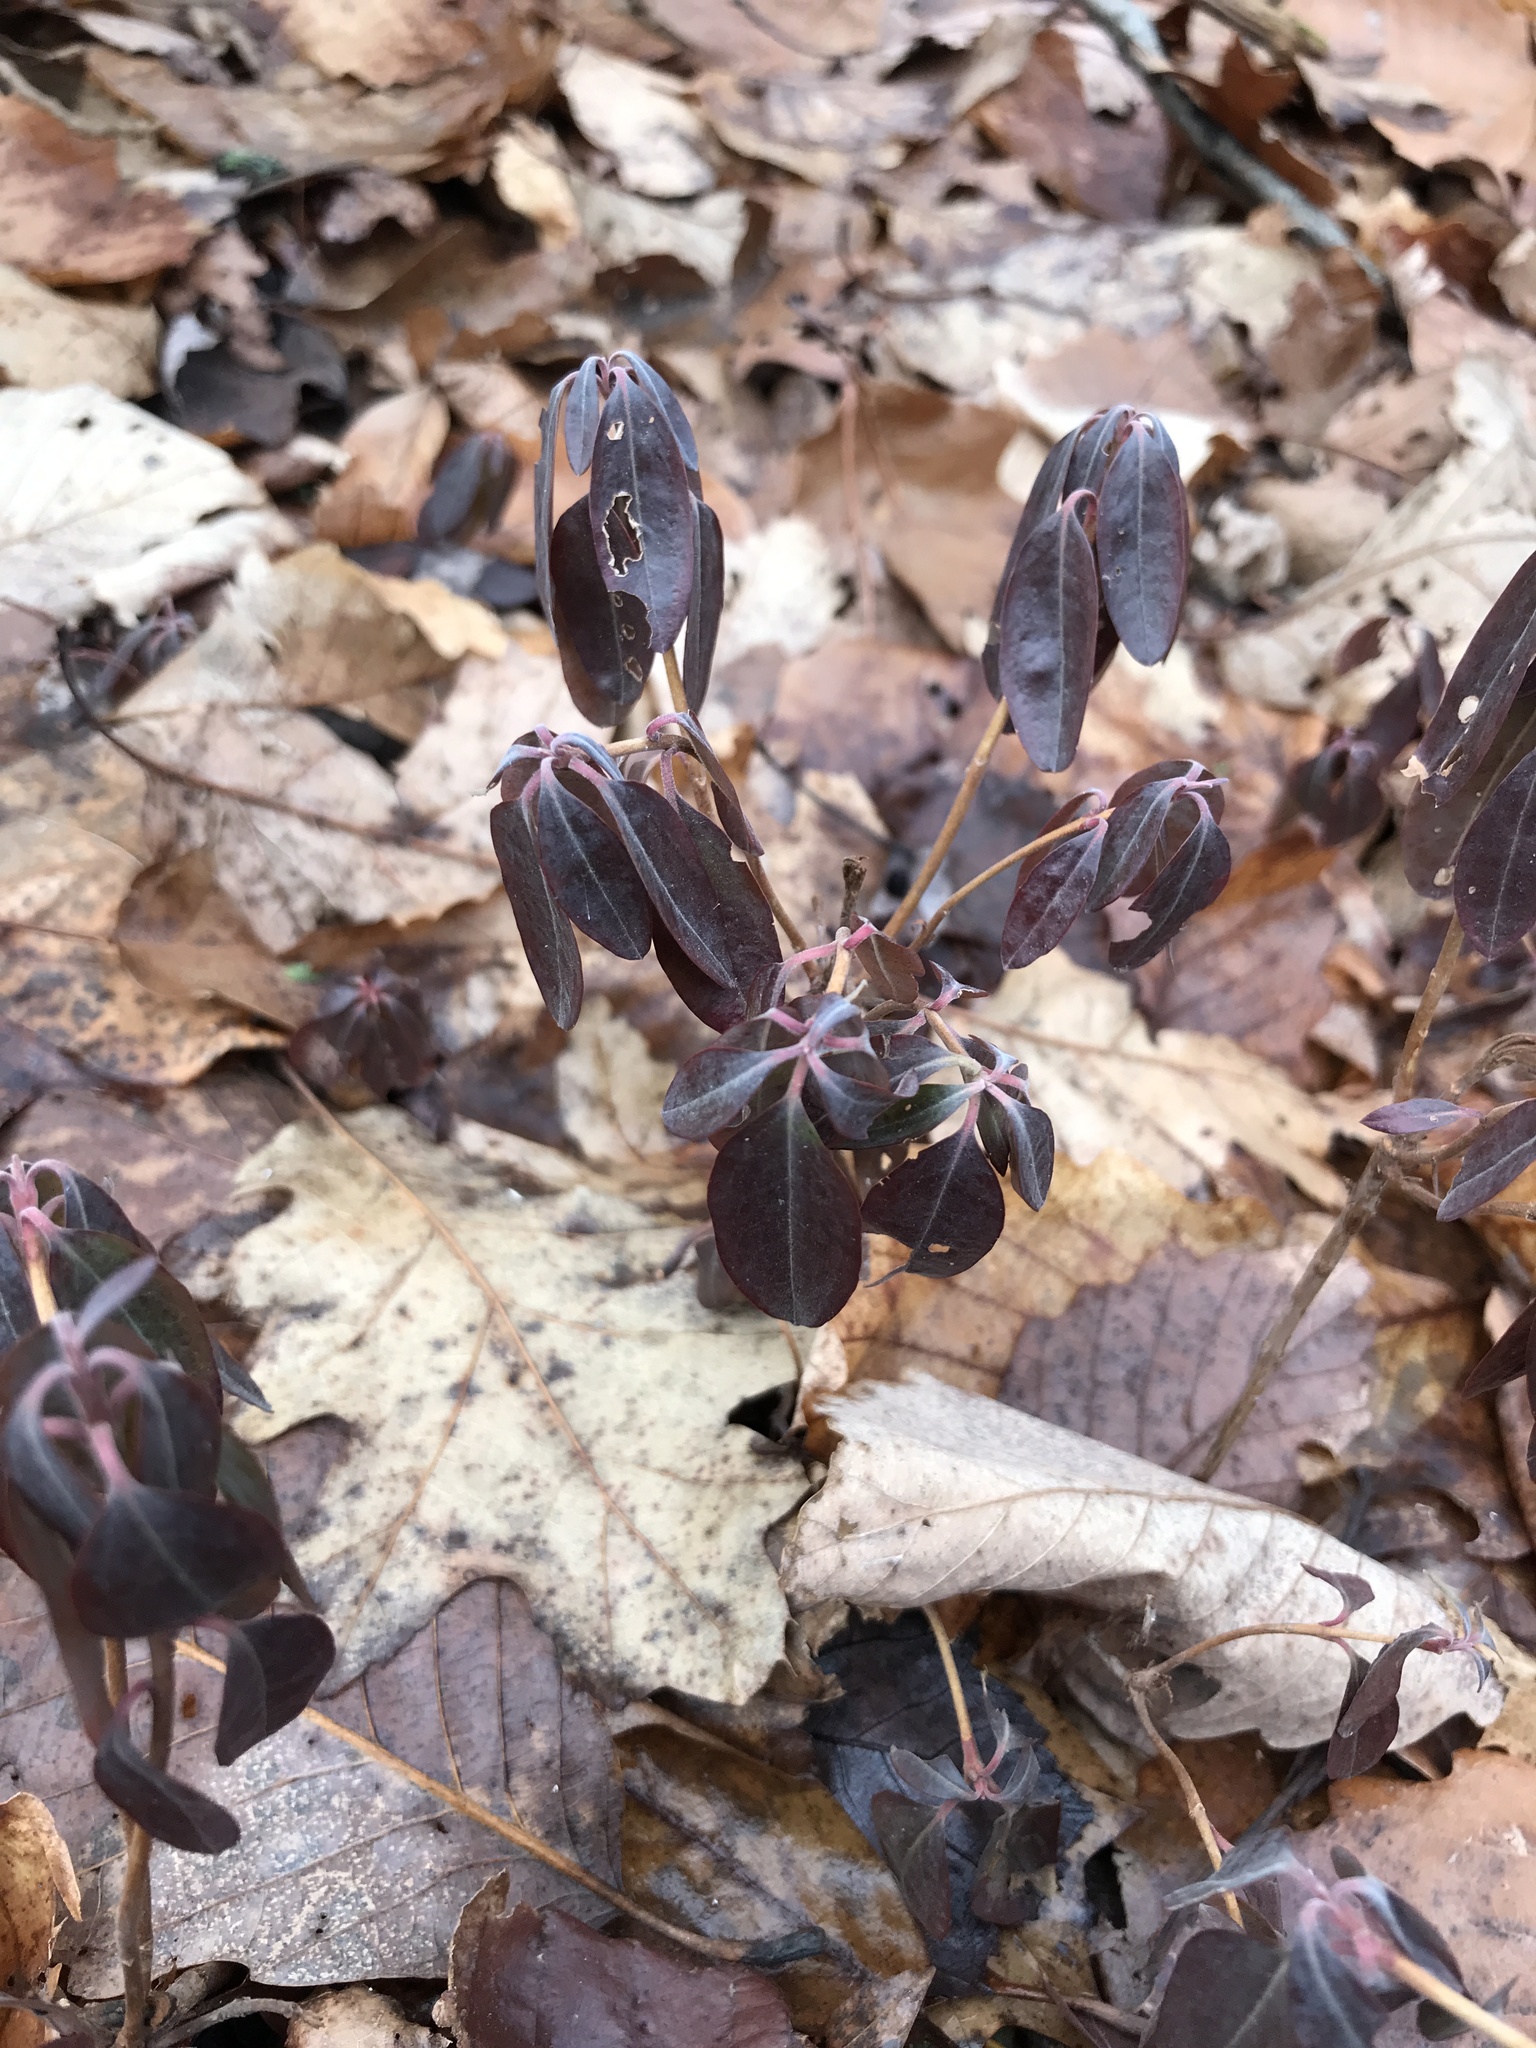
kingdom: Plantae
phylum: Tracheophyta
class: Magnoliopsida
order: Ericales
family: Ericaceae
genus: Kalmia
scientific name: Kalmia angustifolia
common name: Sheep-laurel
